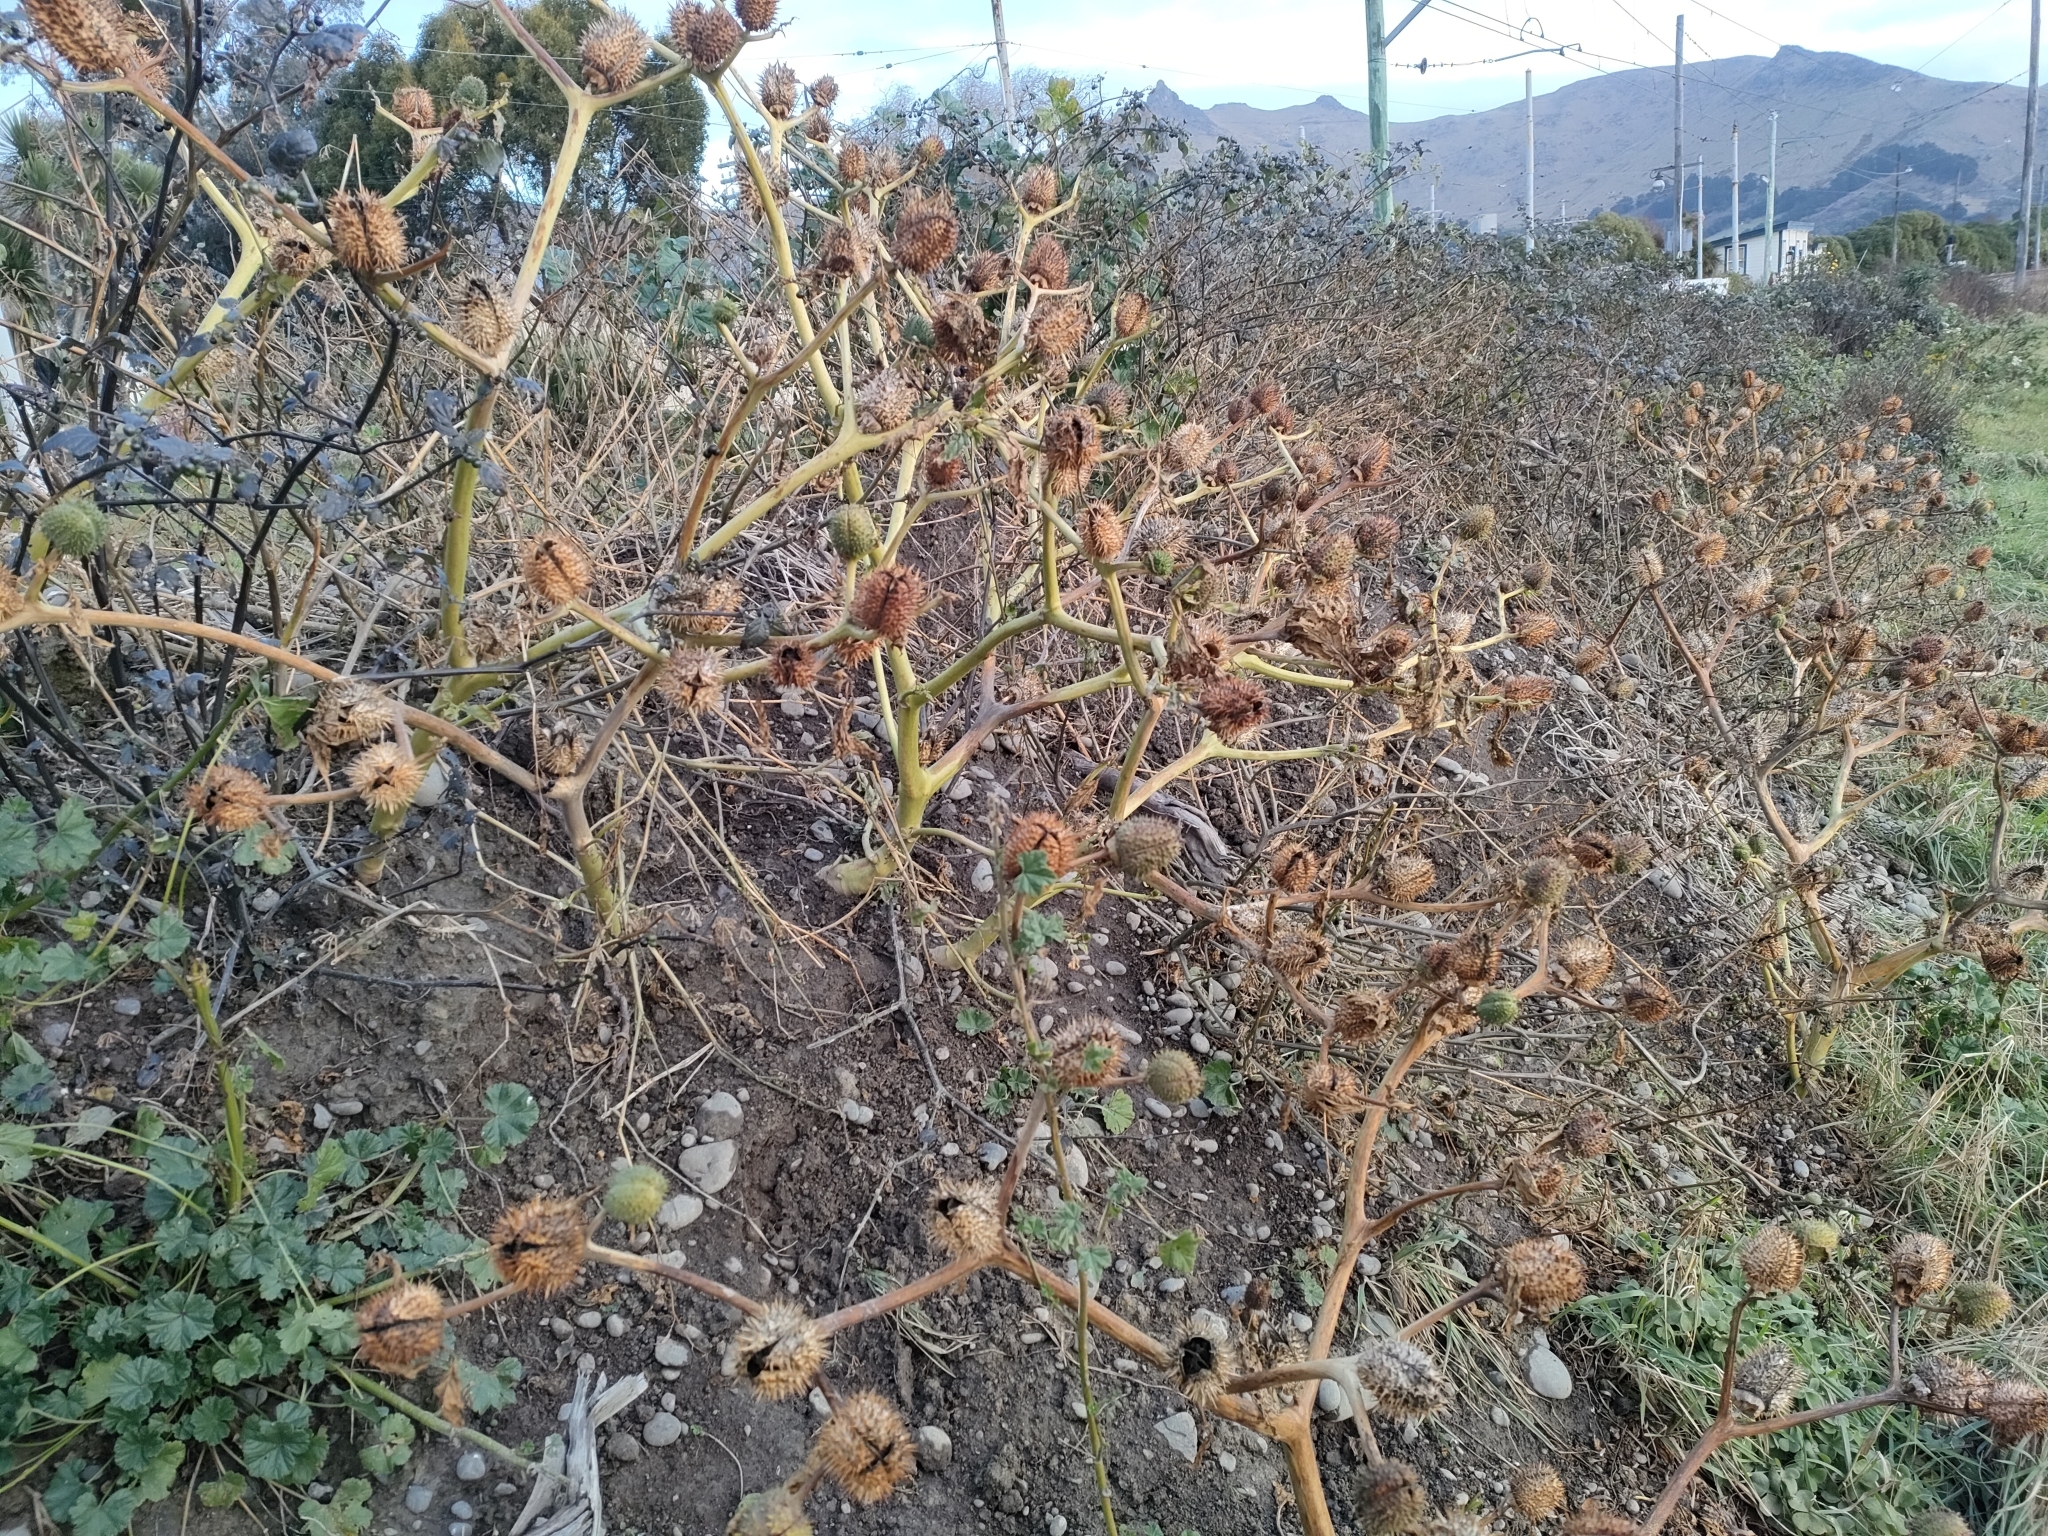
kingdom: Plantae
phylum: Tracheophyta
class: Magnoliopsida
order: Solanales
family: Solanaceae
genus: Datura
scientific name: Datura stramonium
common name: Thorn-apple
